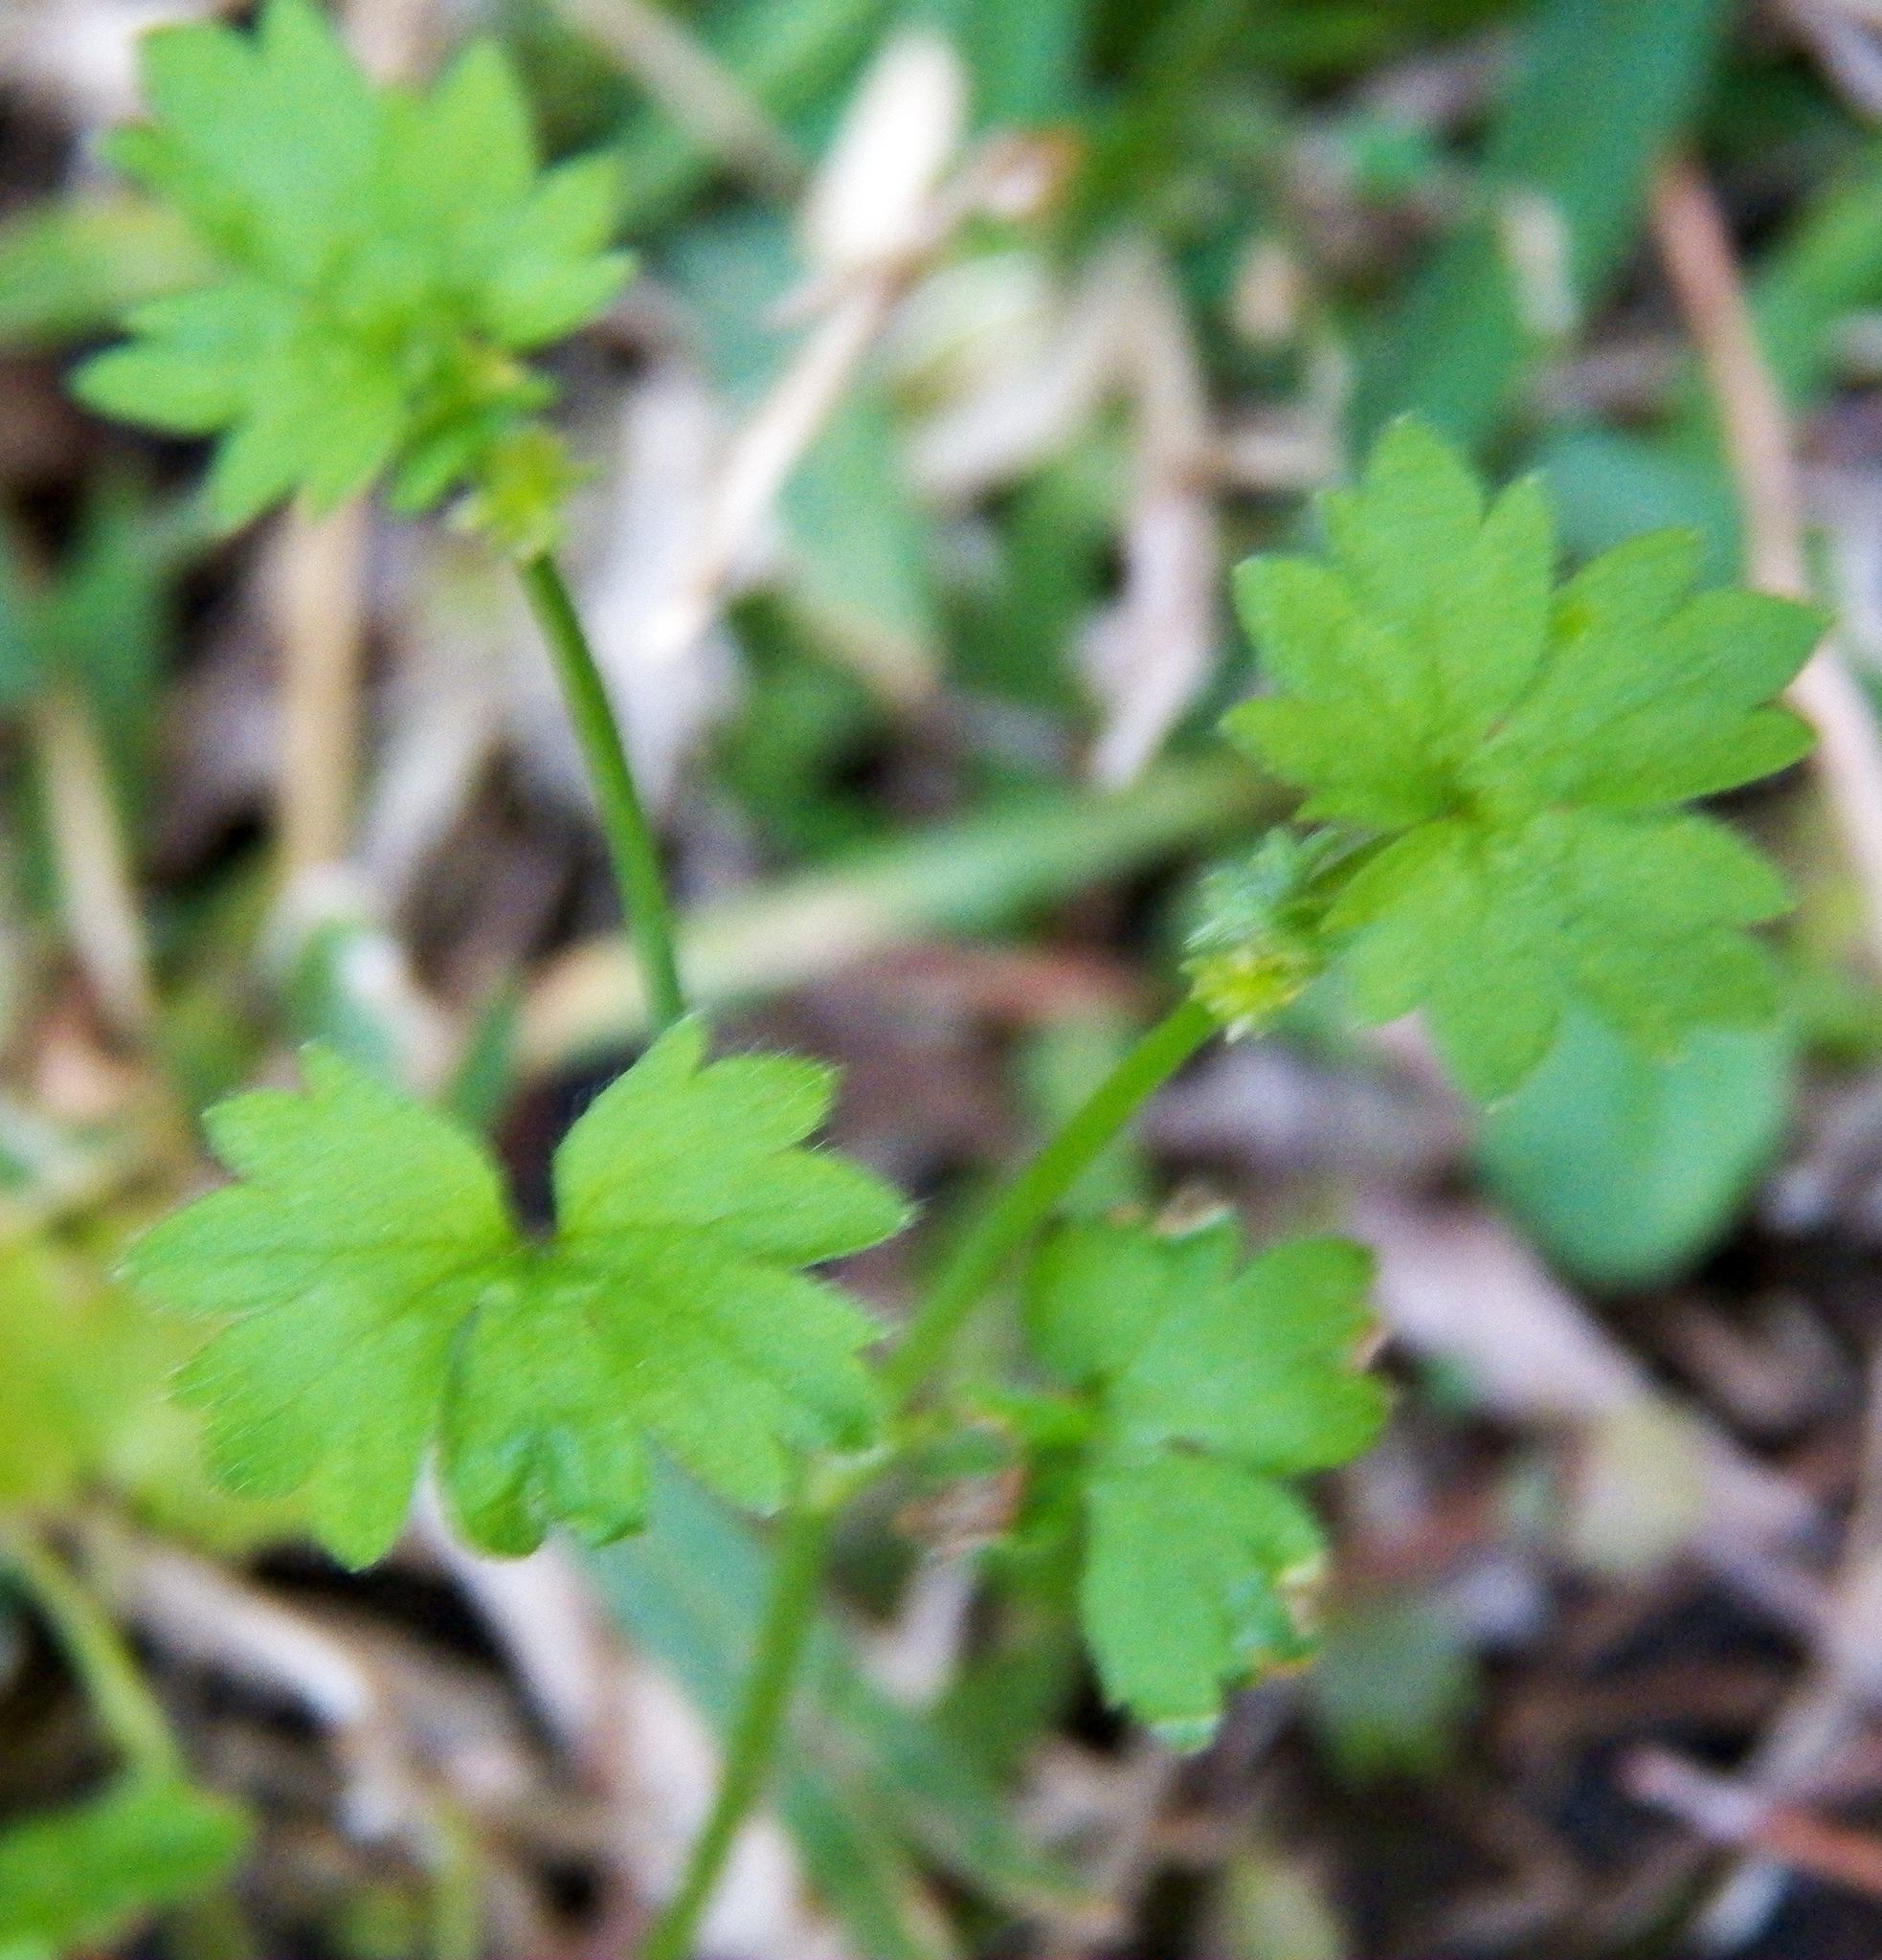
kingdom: Plantae
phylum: Tracheophyta
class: Magnoliopsida
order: Ranunculales
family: Ranunculaceae
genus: Ranunculus
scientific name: Ranunculus platensis
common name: Prairie buttercup
